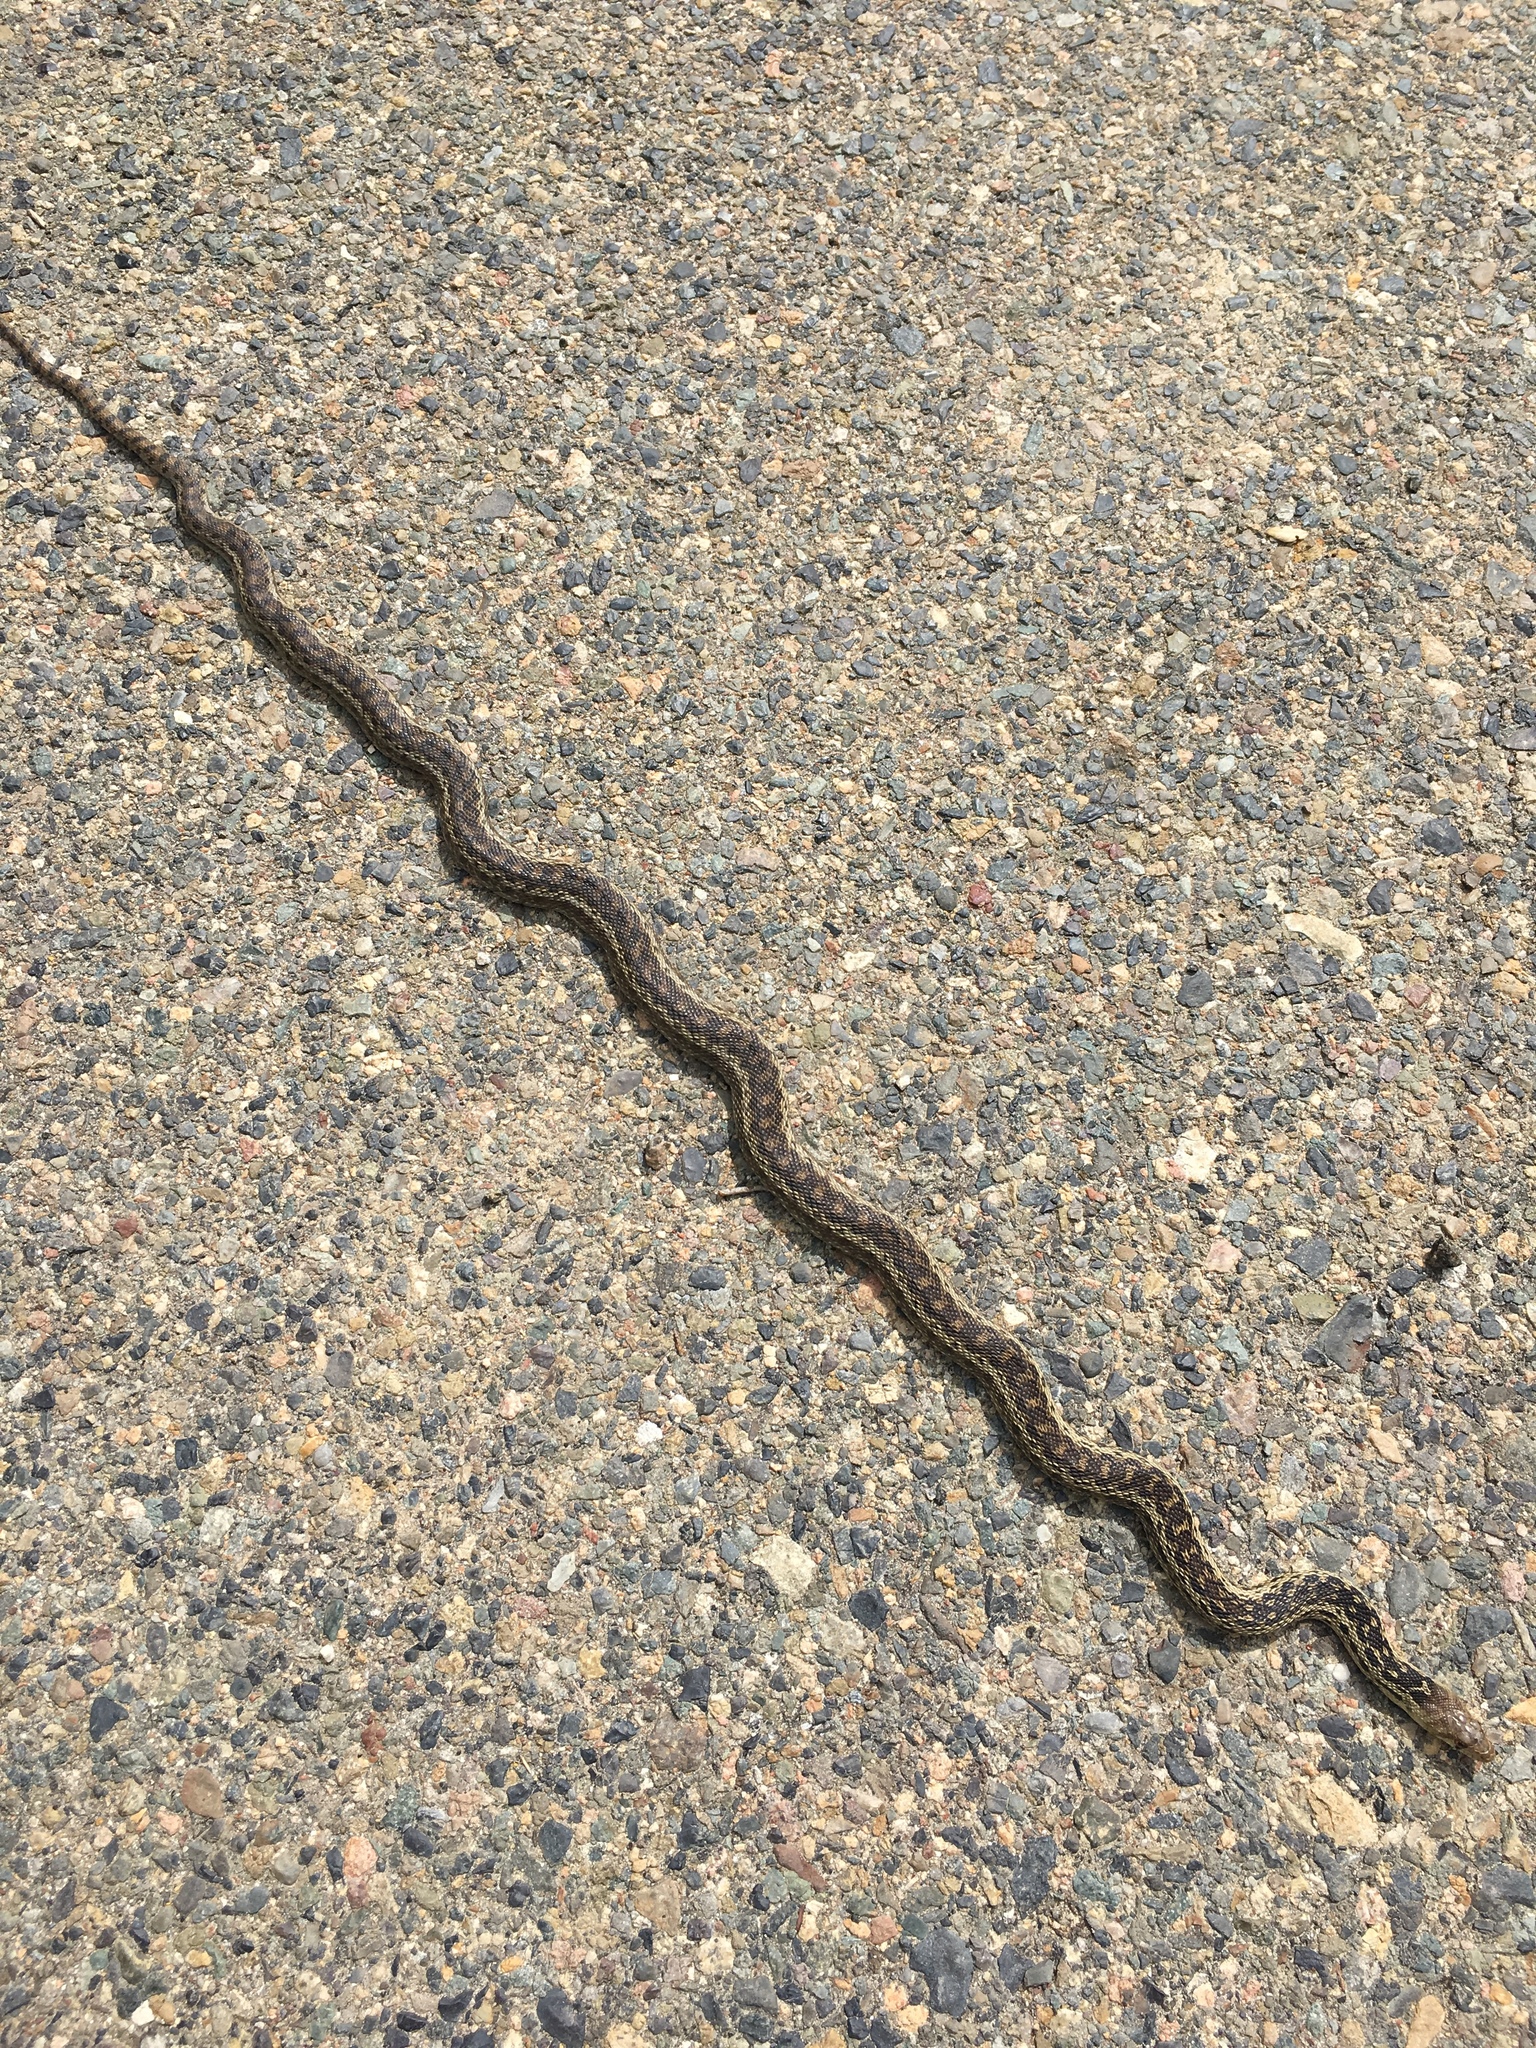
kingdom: Animalia
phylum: Chordata
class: Squamata
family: Colubridae
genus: Pituophis
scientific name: Pituophis catenifer
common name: Gopher snake
